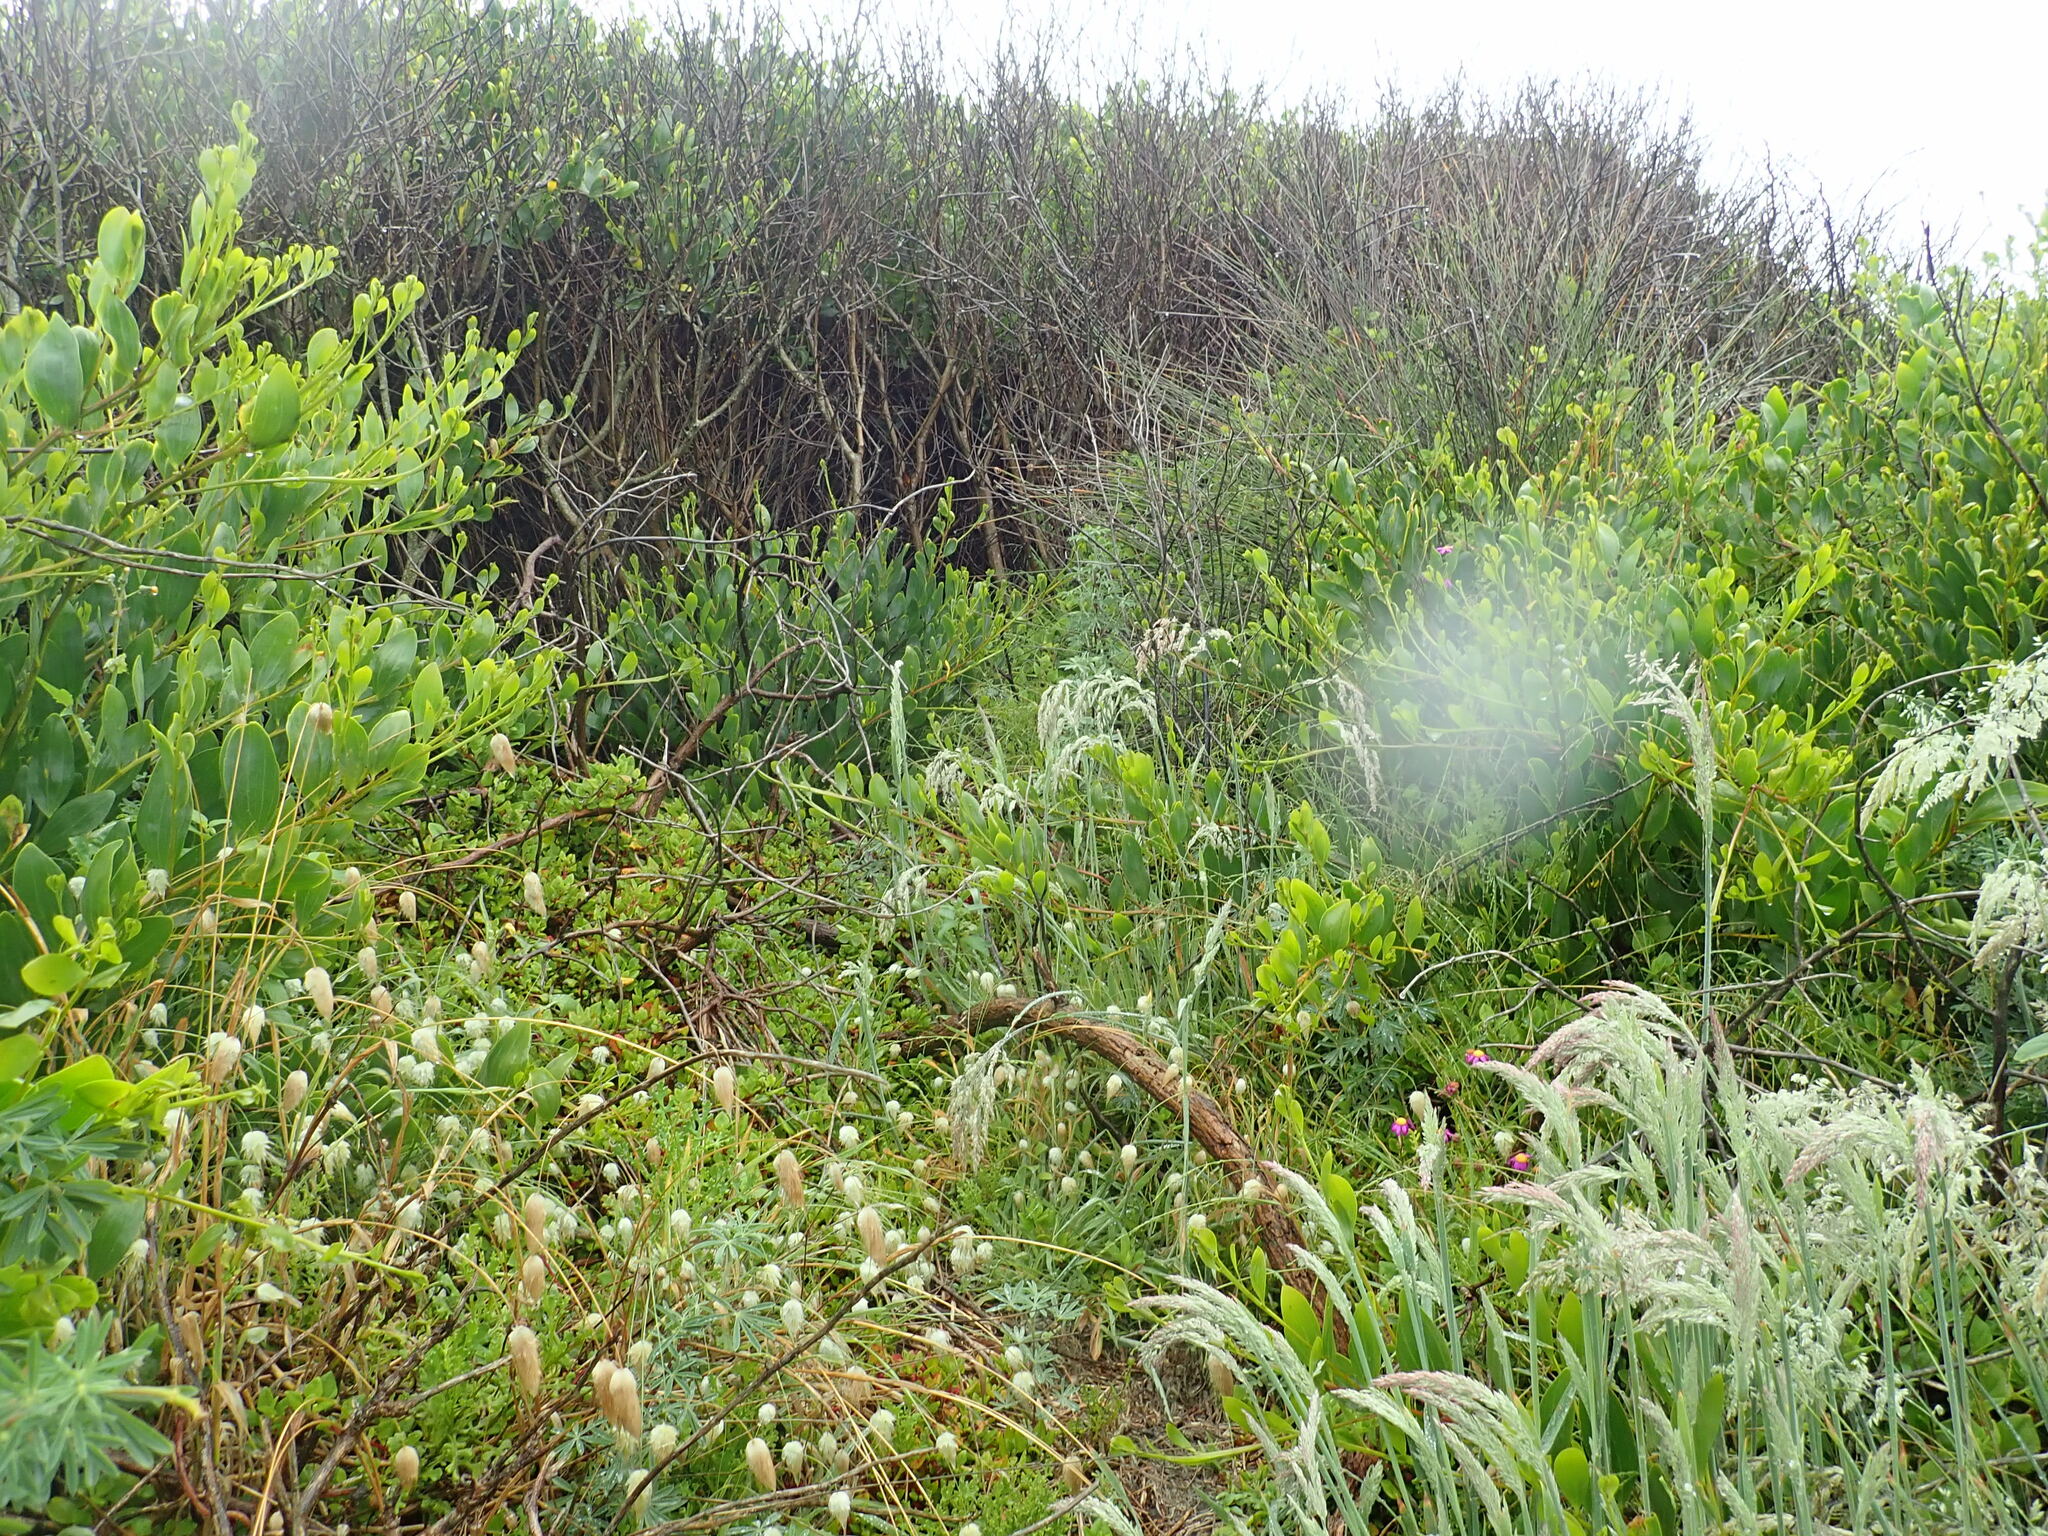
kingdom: Plantae
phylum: Tracheophyta
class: Magnoliopsida
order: Caryophyllales
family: Aizoaceae
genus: Tetragonia
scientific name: Tetragonia implexicoma
